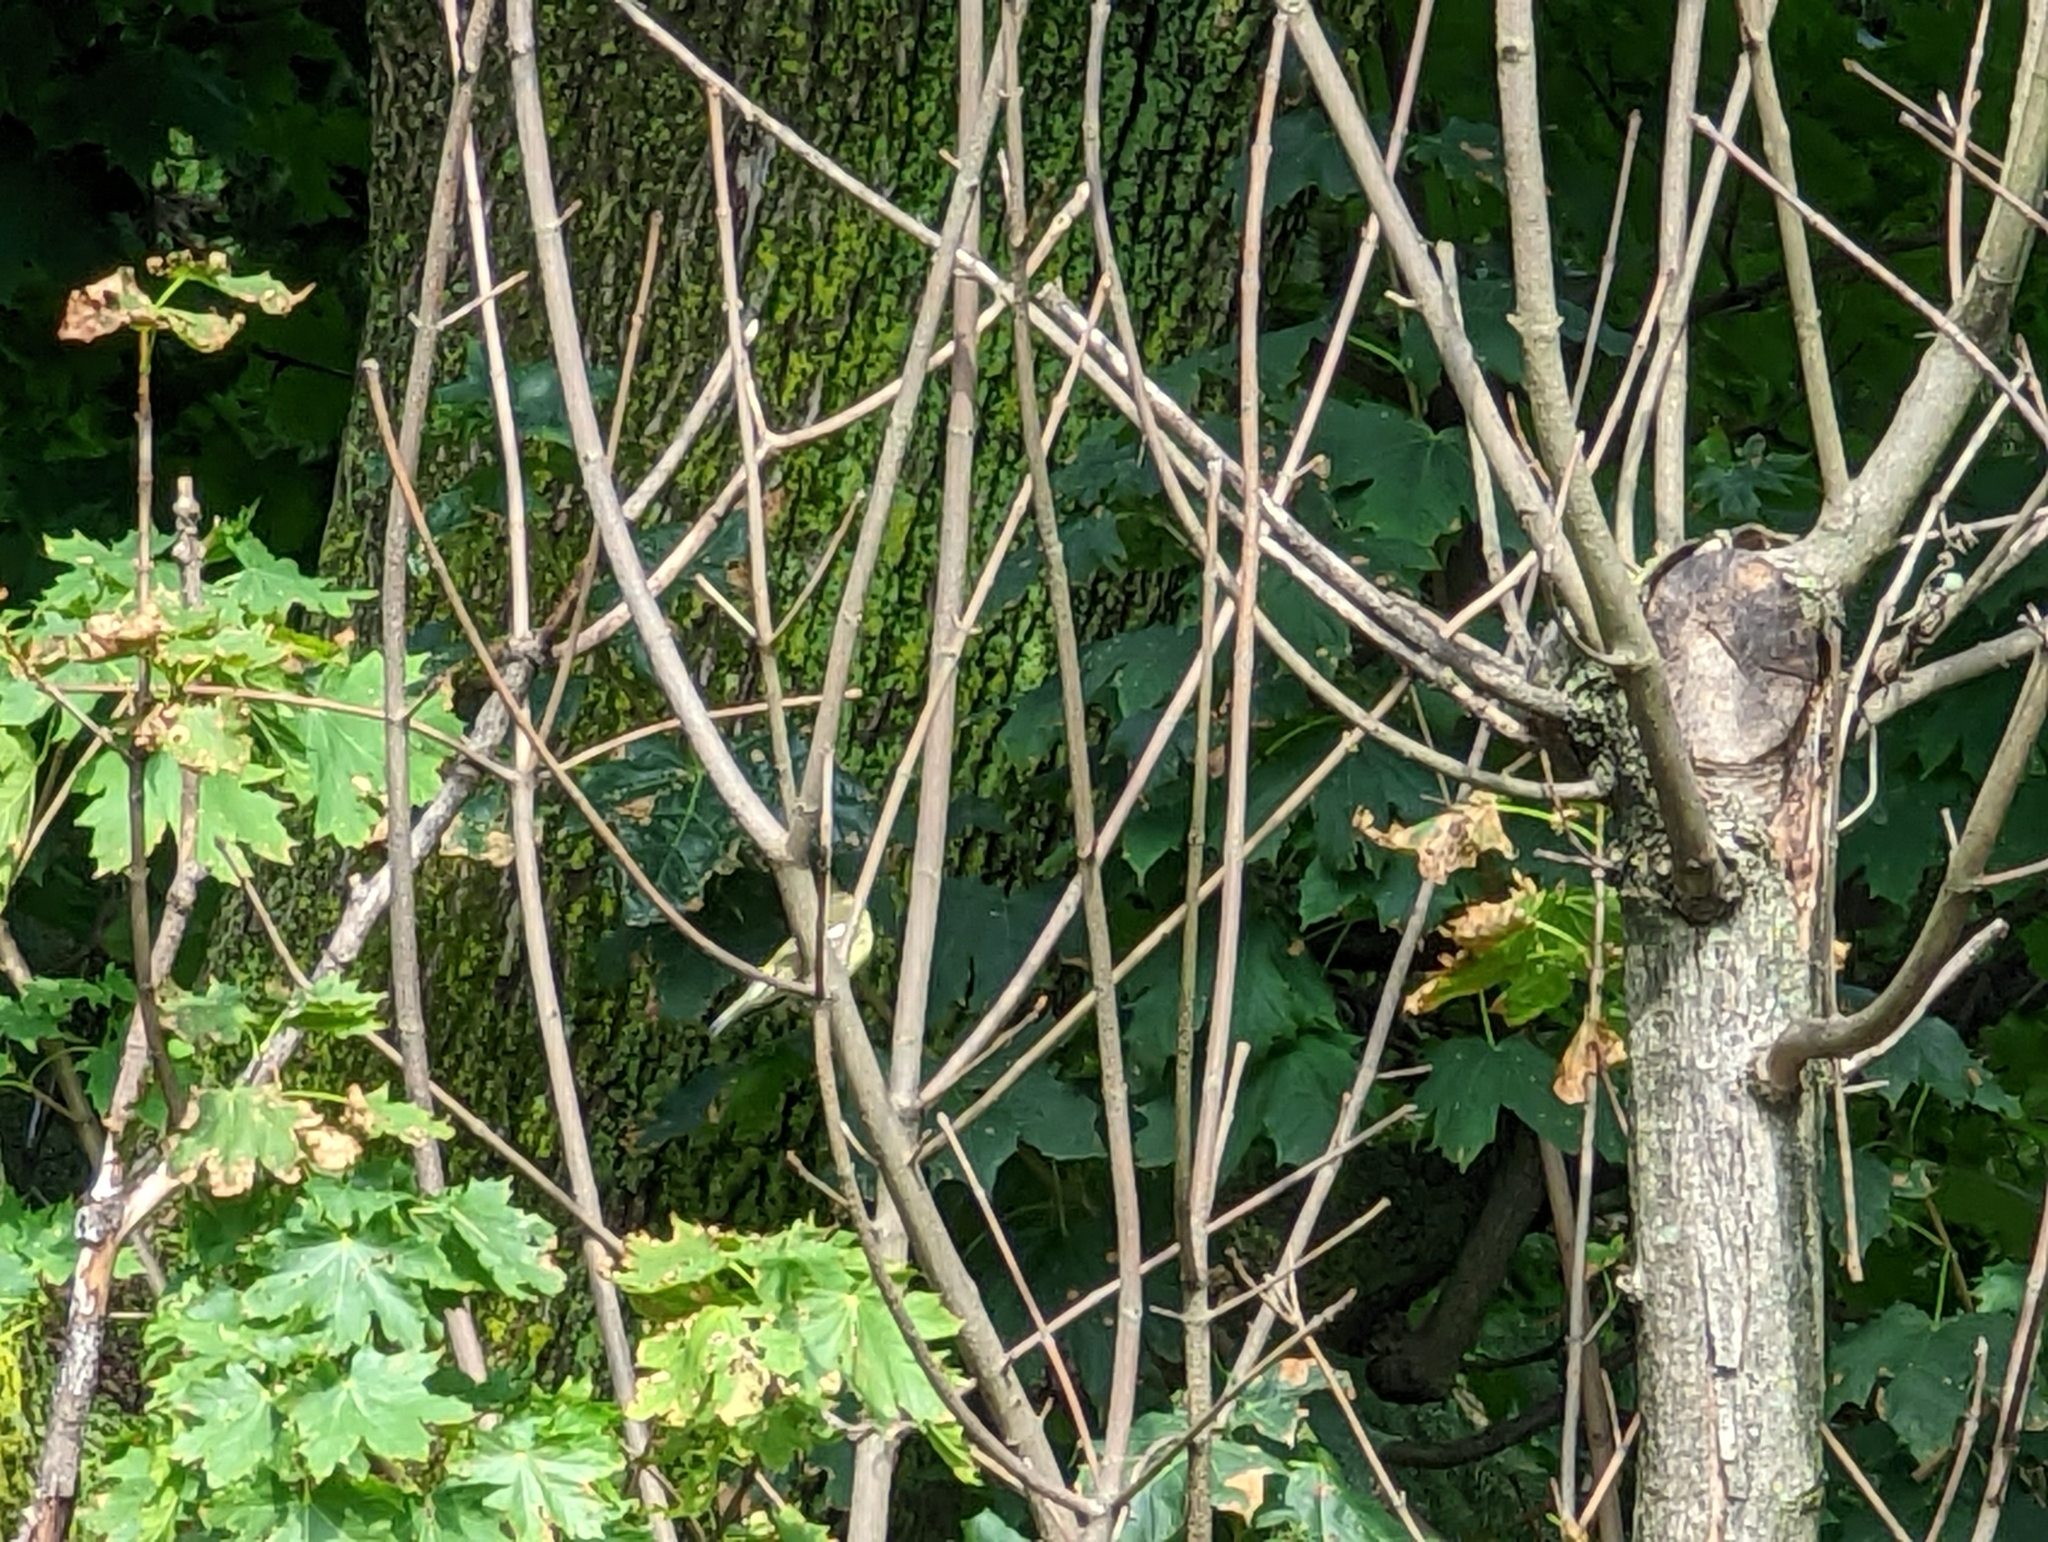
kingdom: Animalia
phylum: Chordata
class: Aves
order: Passeriformes
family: Parulidae
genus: Setophaga
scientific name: Setophaga tigrina
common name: Cape may warbler
